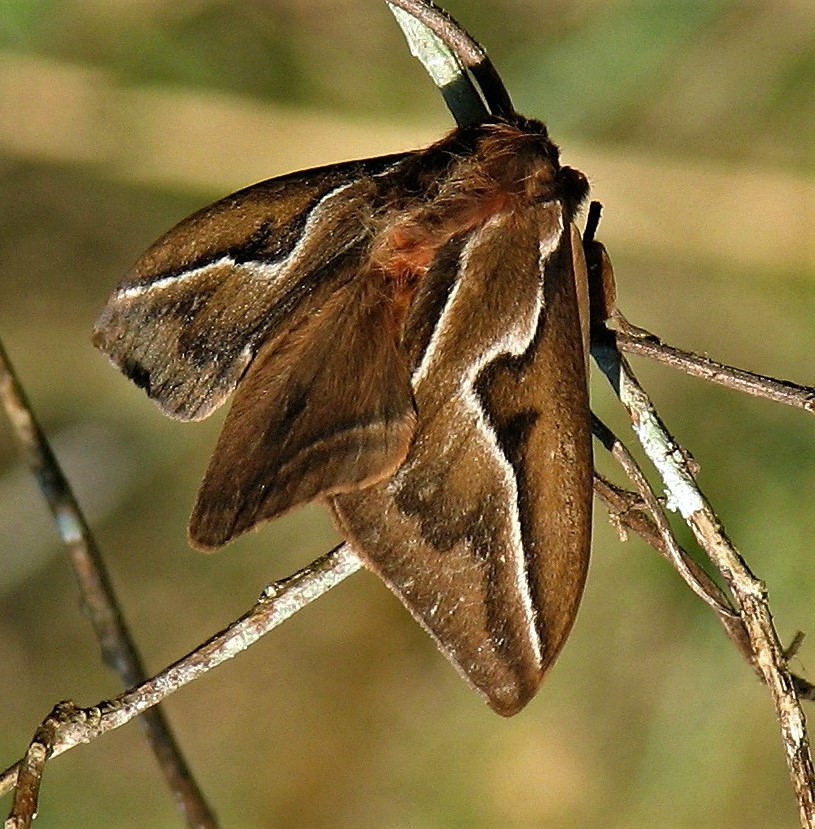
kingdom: Animalia
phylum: Arthropoda
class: Insecta
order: Lepidoptera
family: Saturniidae
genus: Dirphia
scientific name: Dirphia araucariae
